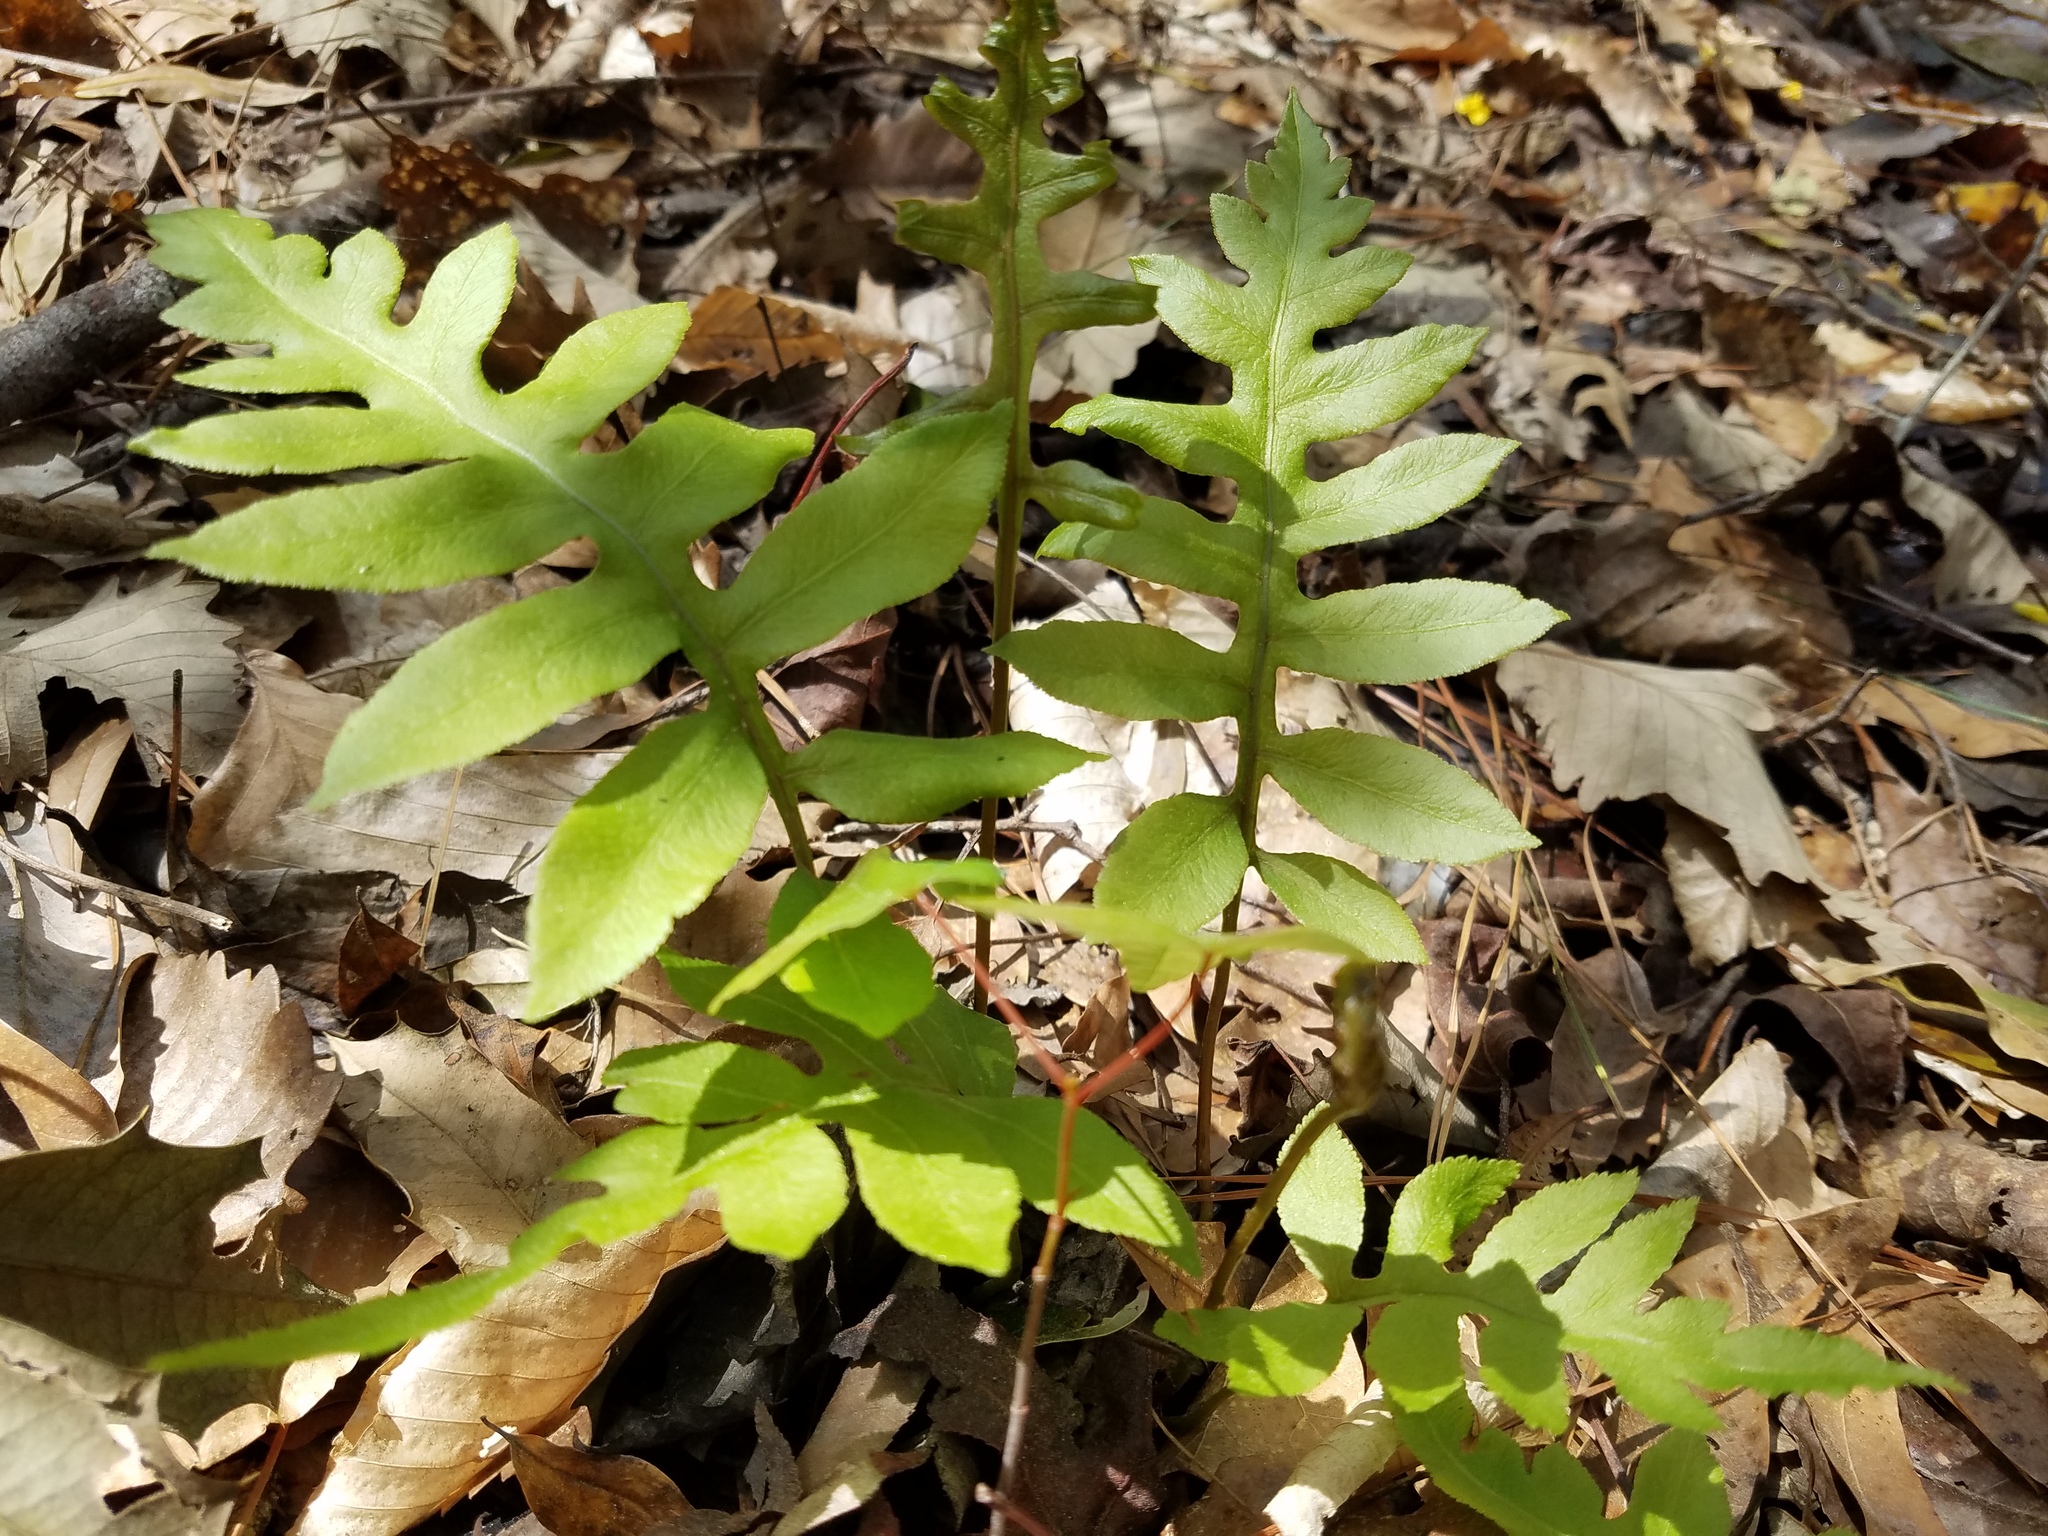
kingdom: Plantae
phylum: Tracheophyta
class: Polypodiopsida
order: Polypodiales
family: Blechnaceae
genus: Lorinseria
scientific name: Lorinseria areolata
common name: Dwarf chain fern
